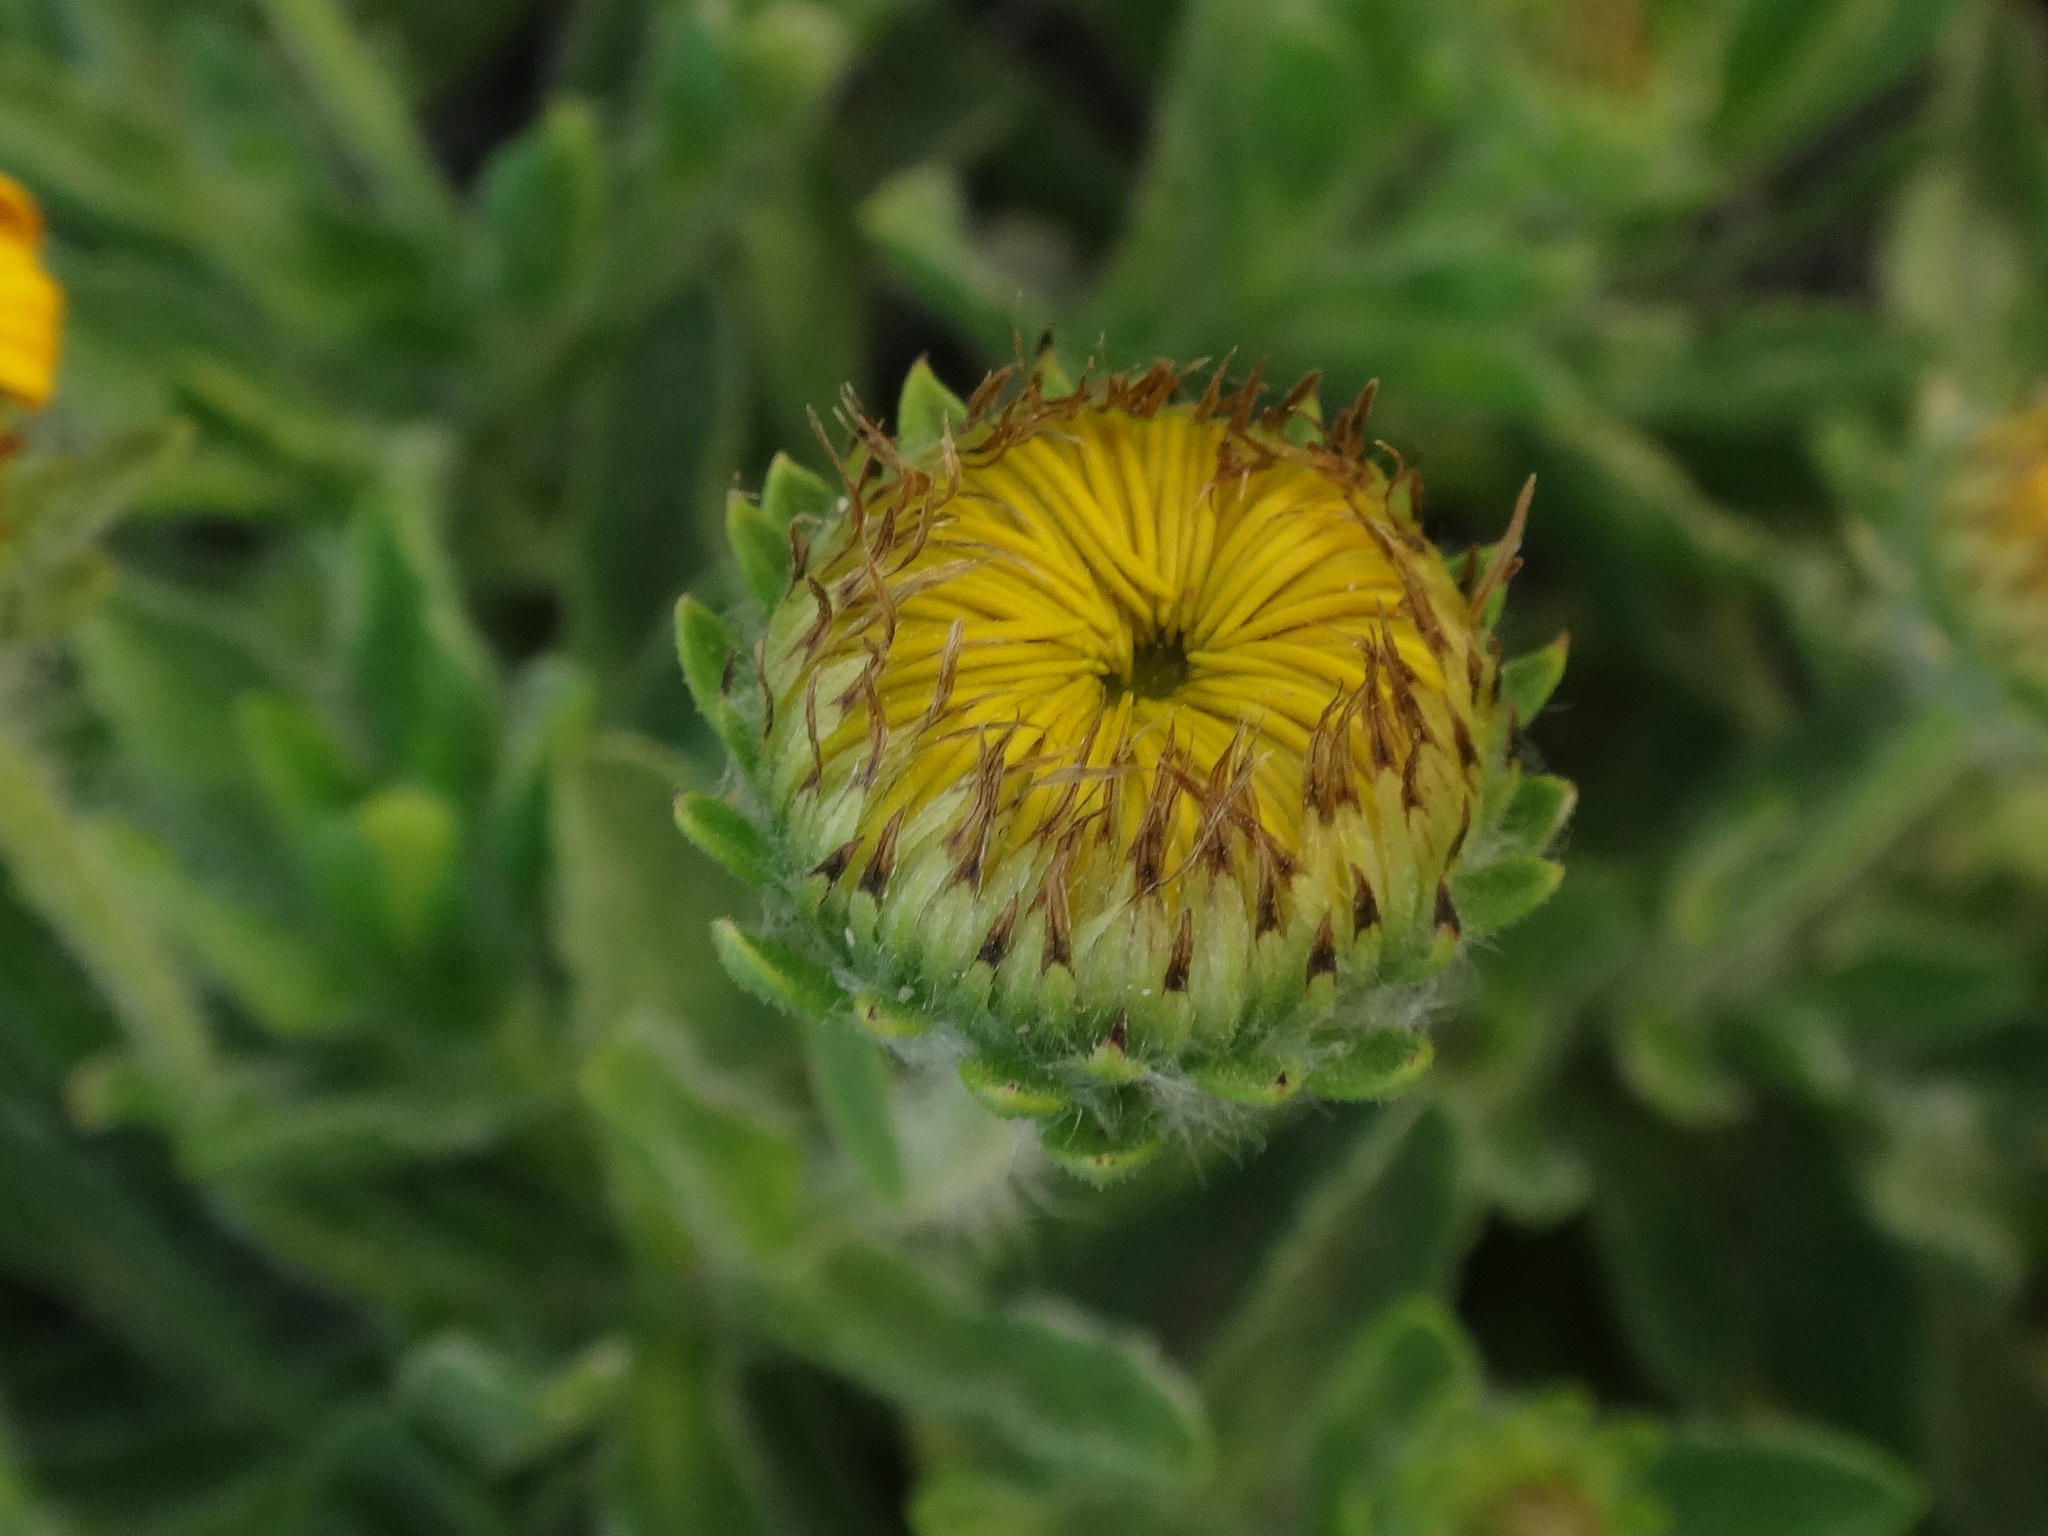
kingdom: Plantae
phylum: Tracheophyta
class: Magnoliopsida
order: Asterales
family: Asteraceae
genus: Pulicaria
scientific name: Pulicaria canariensis
